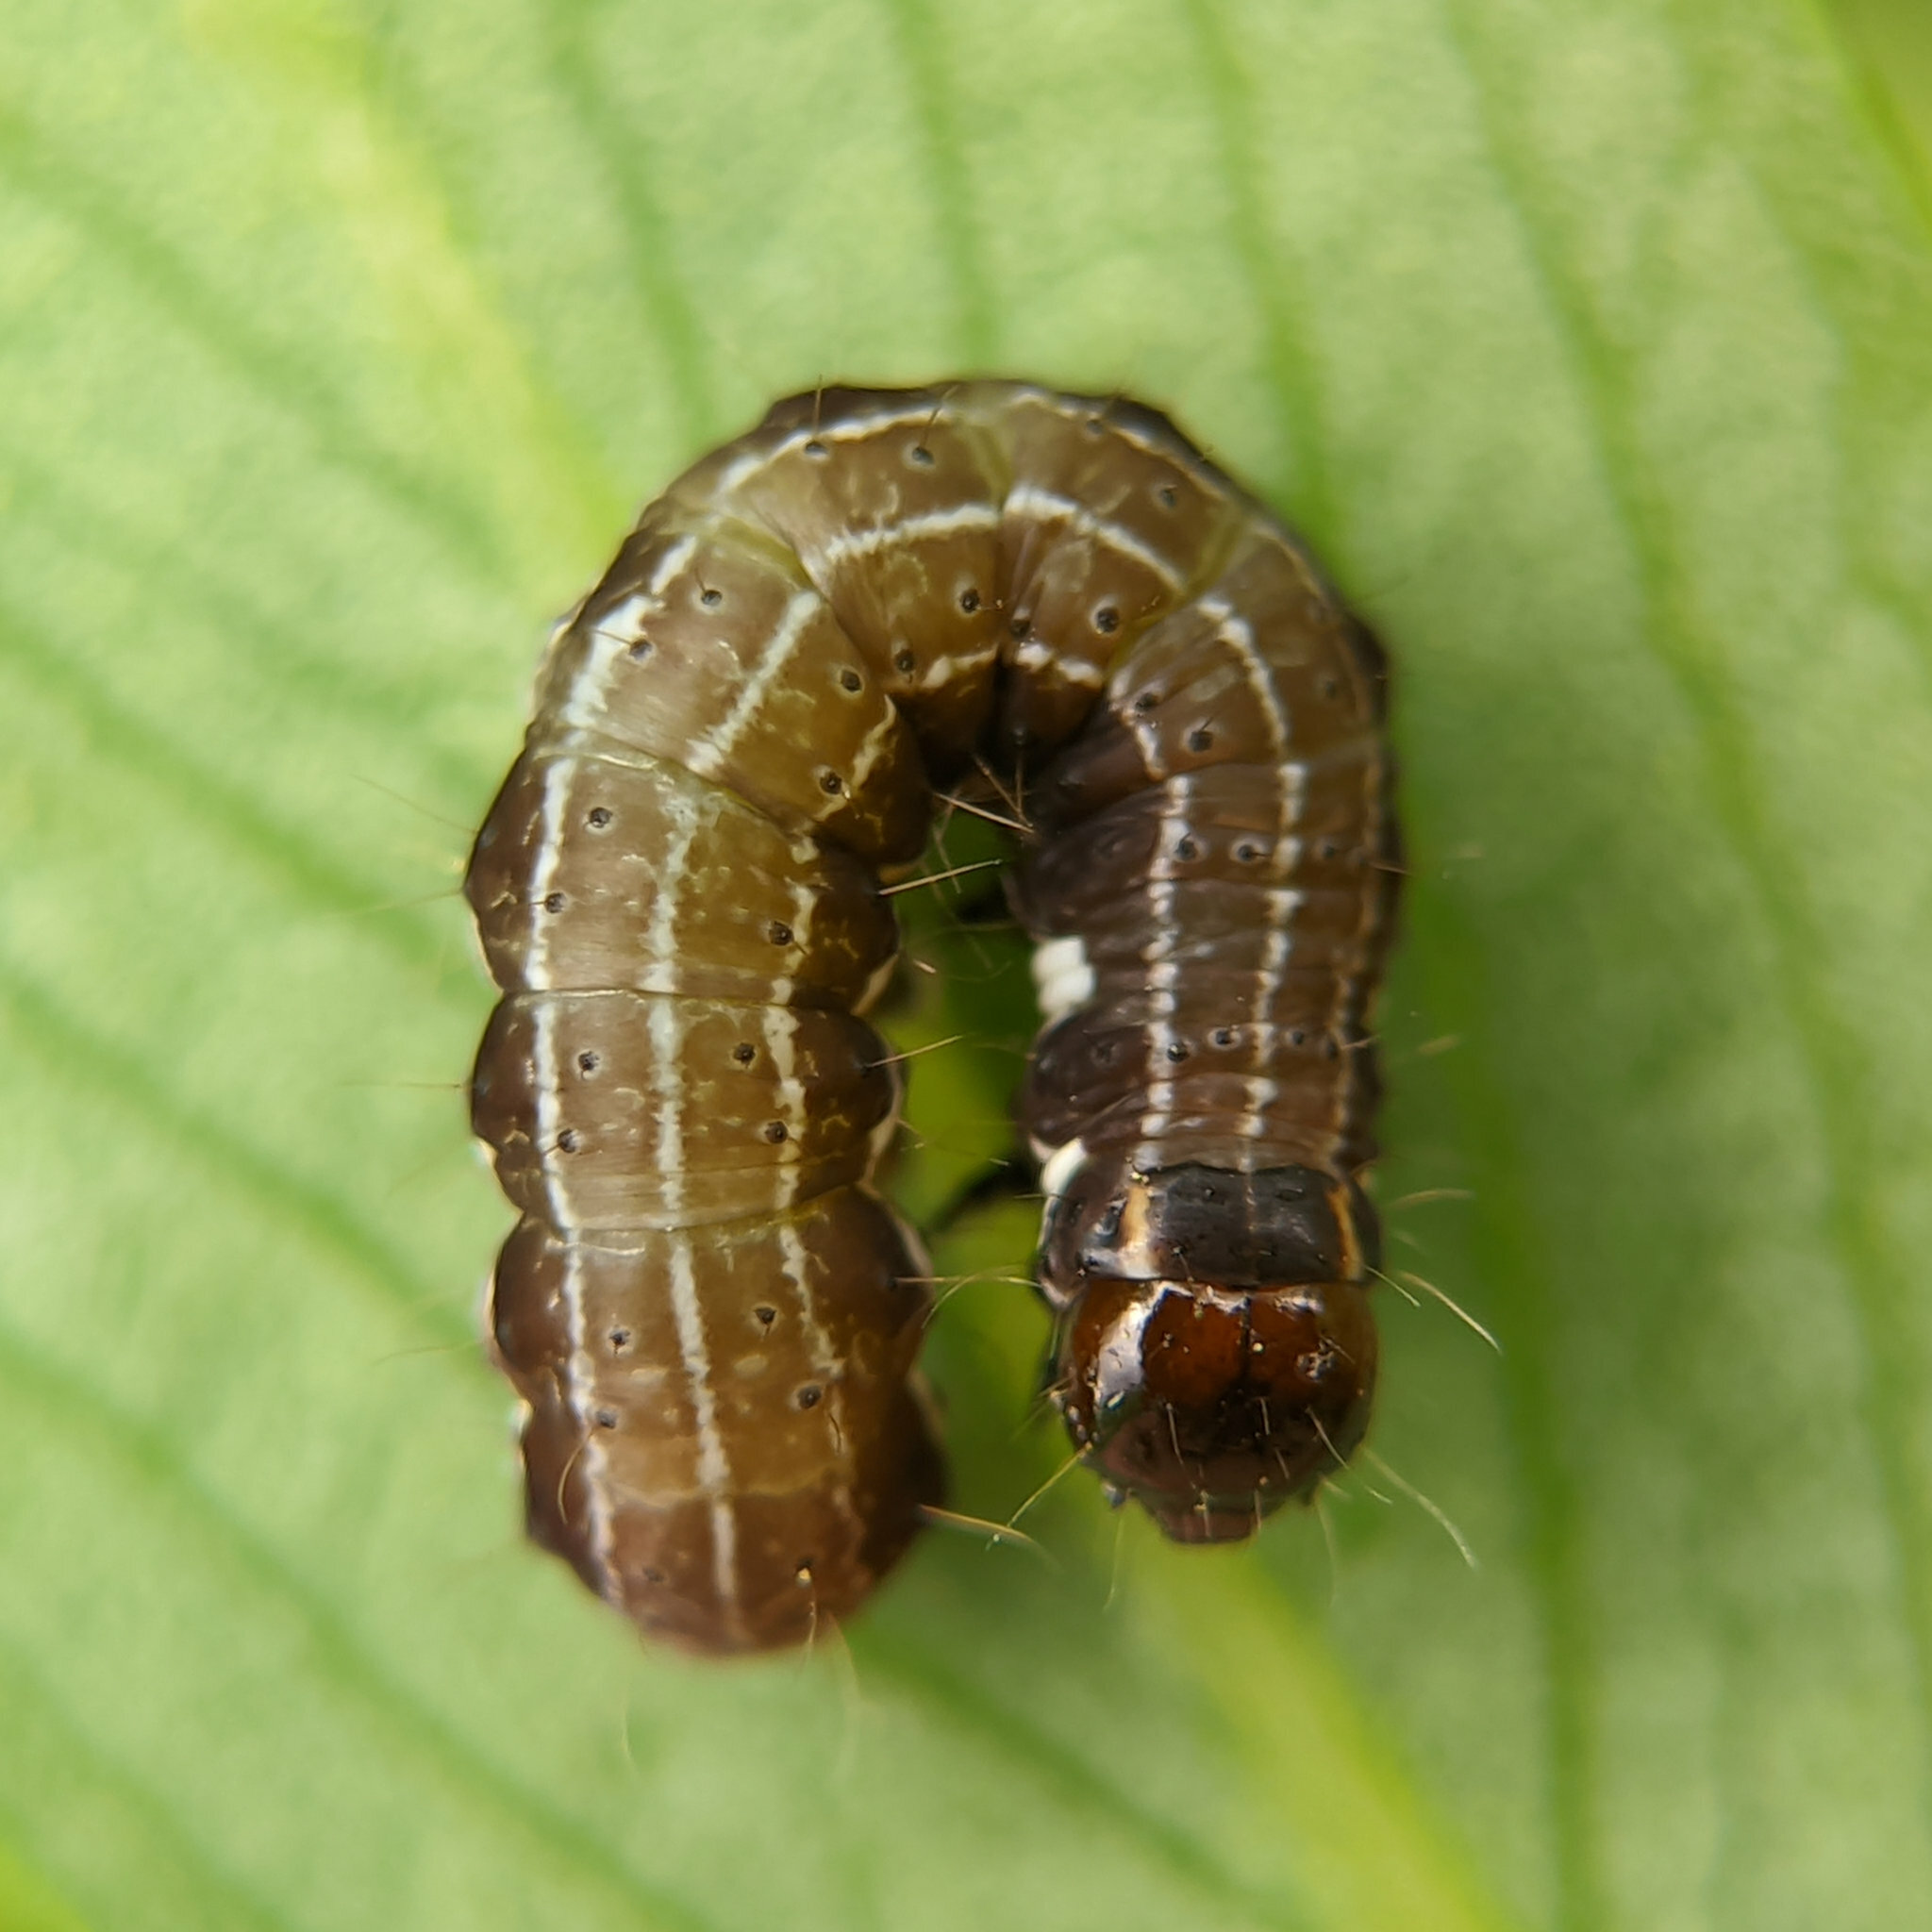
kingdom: Animalia
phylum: Arthropoda
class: Insecta
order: Lepidoptera
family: Noctuidae
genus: Eupsilia
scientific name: Eupsilia transversa
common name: Satellite
